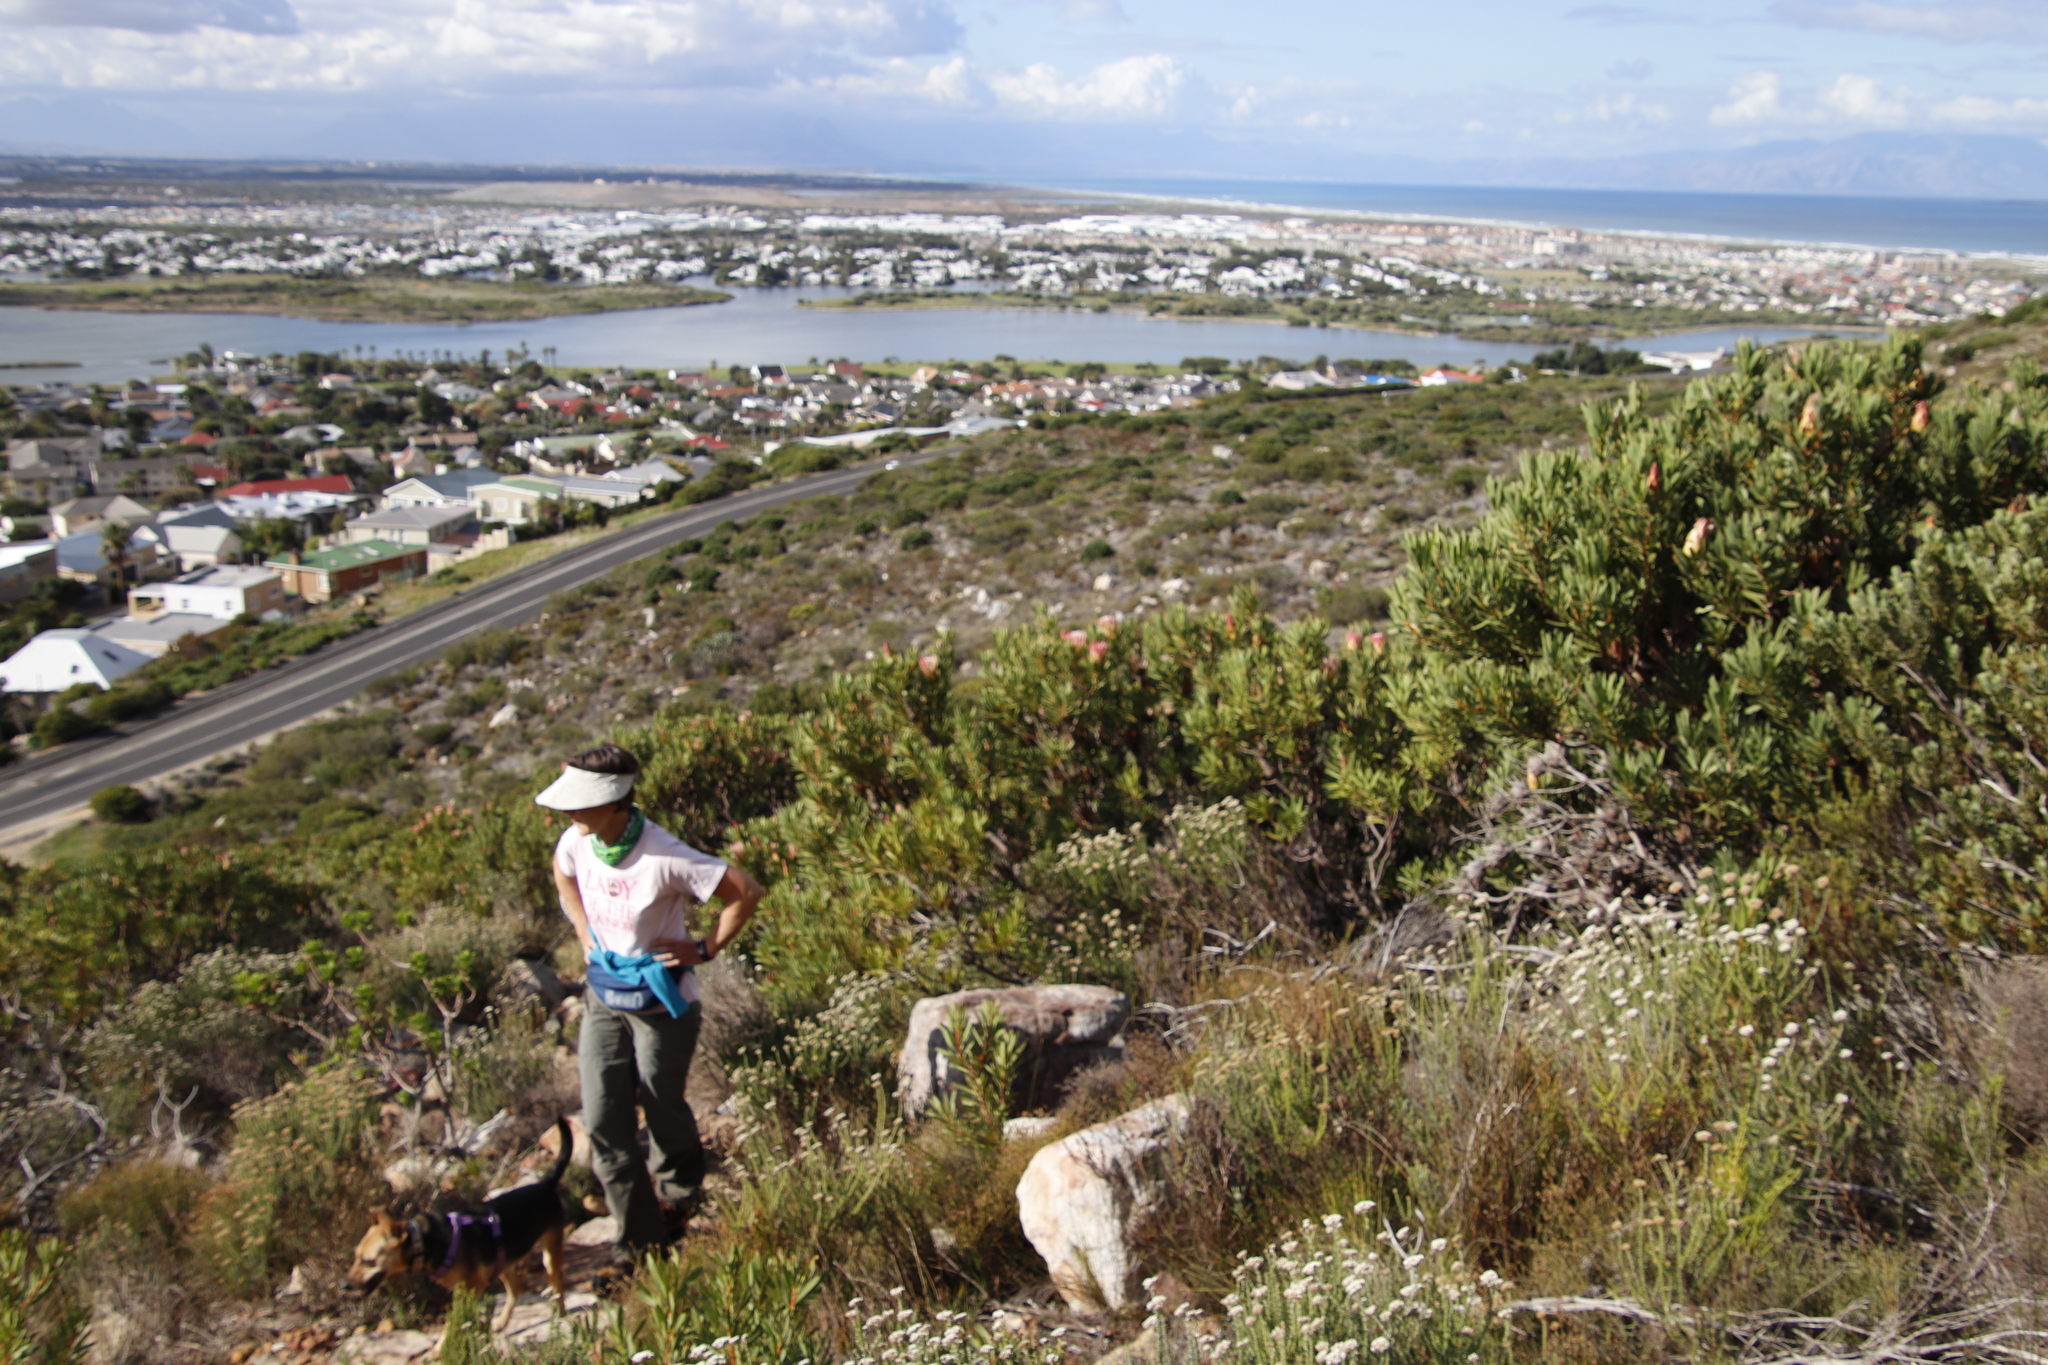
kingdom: Plantae
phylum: Tracheophyta
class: Magnoliopsida
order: Proteales
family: Proteaceae
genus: Protea
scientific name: Protea repens
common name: Sugarbush
